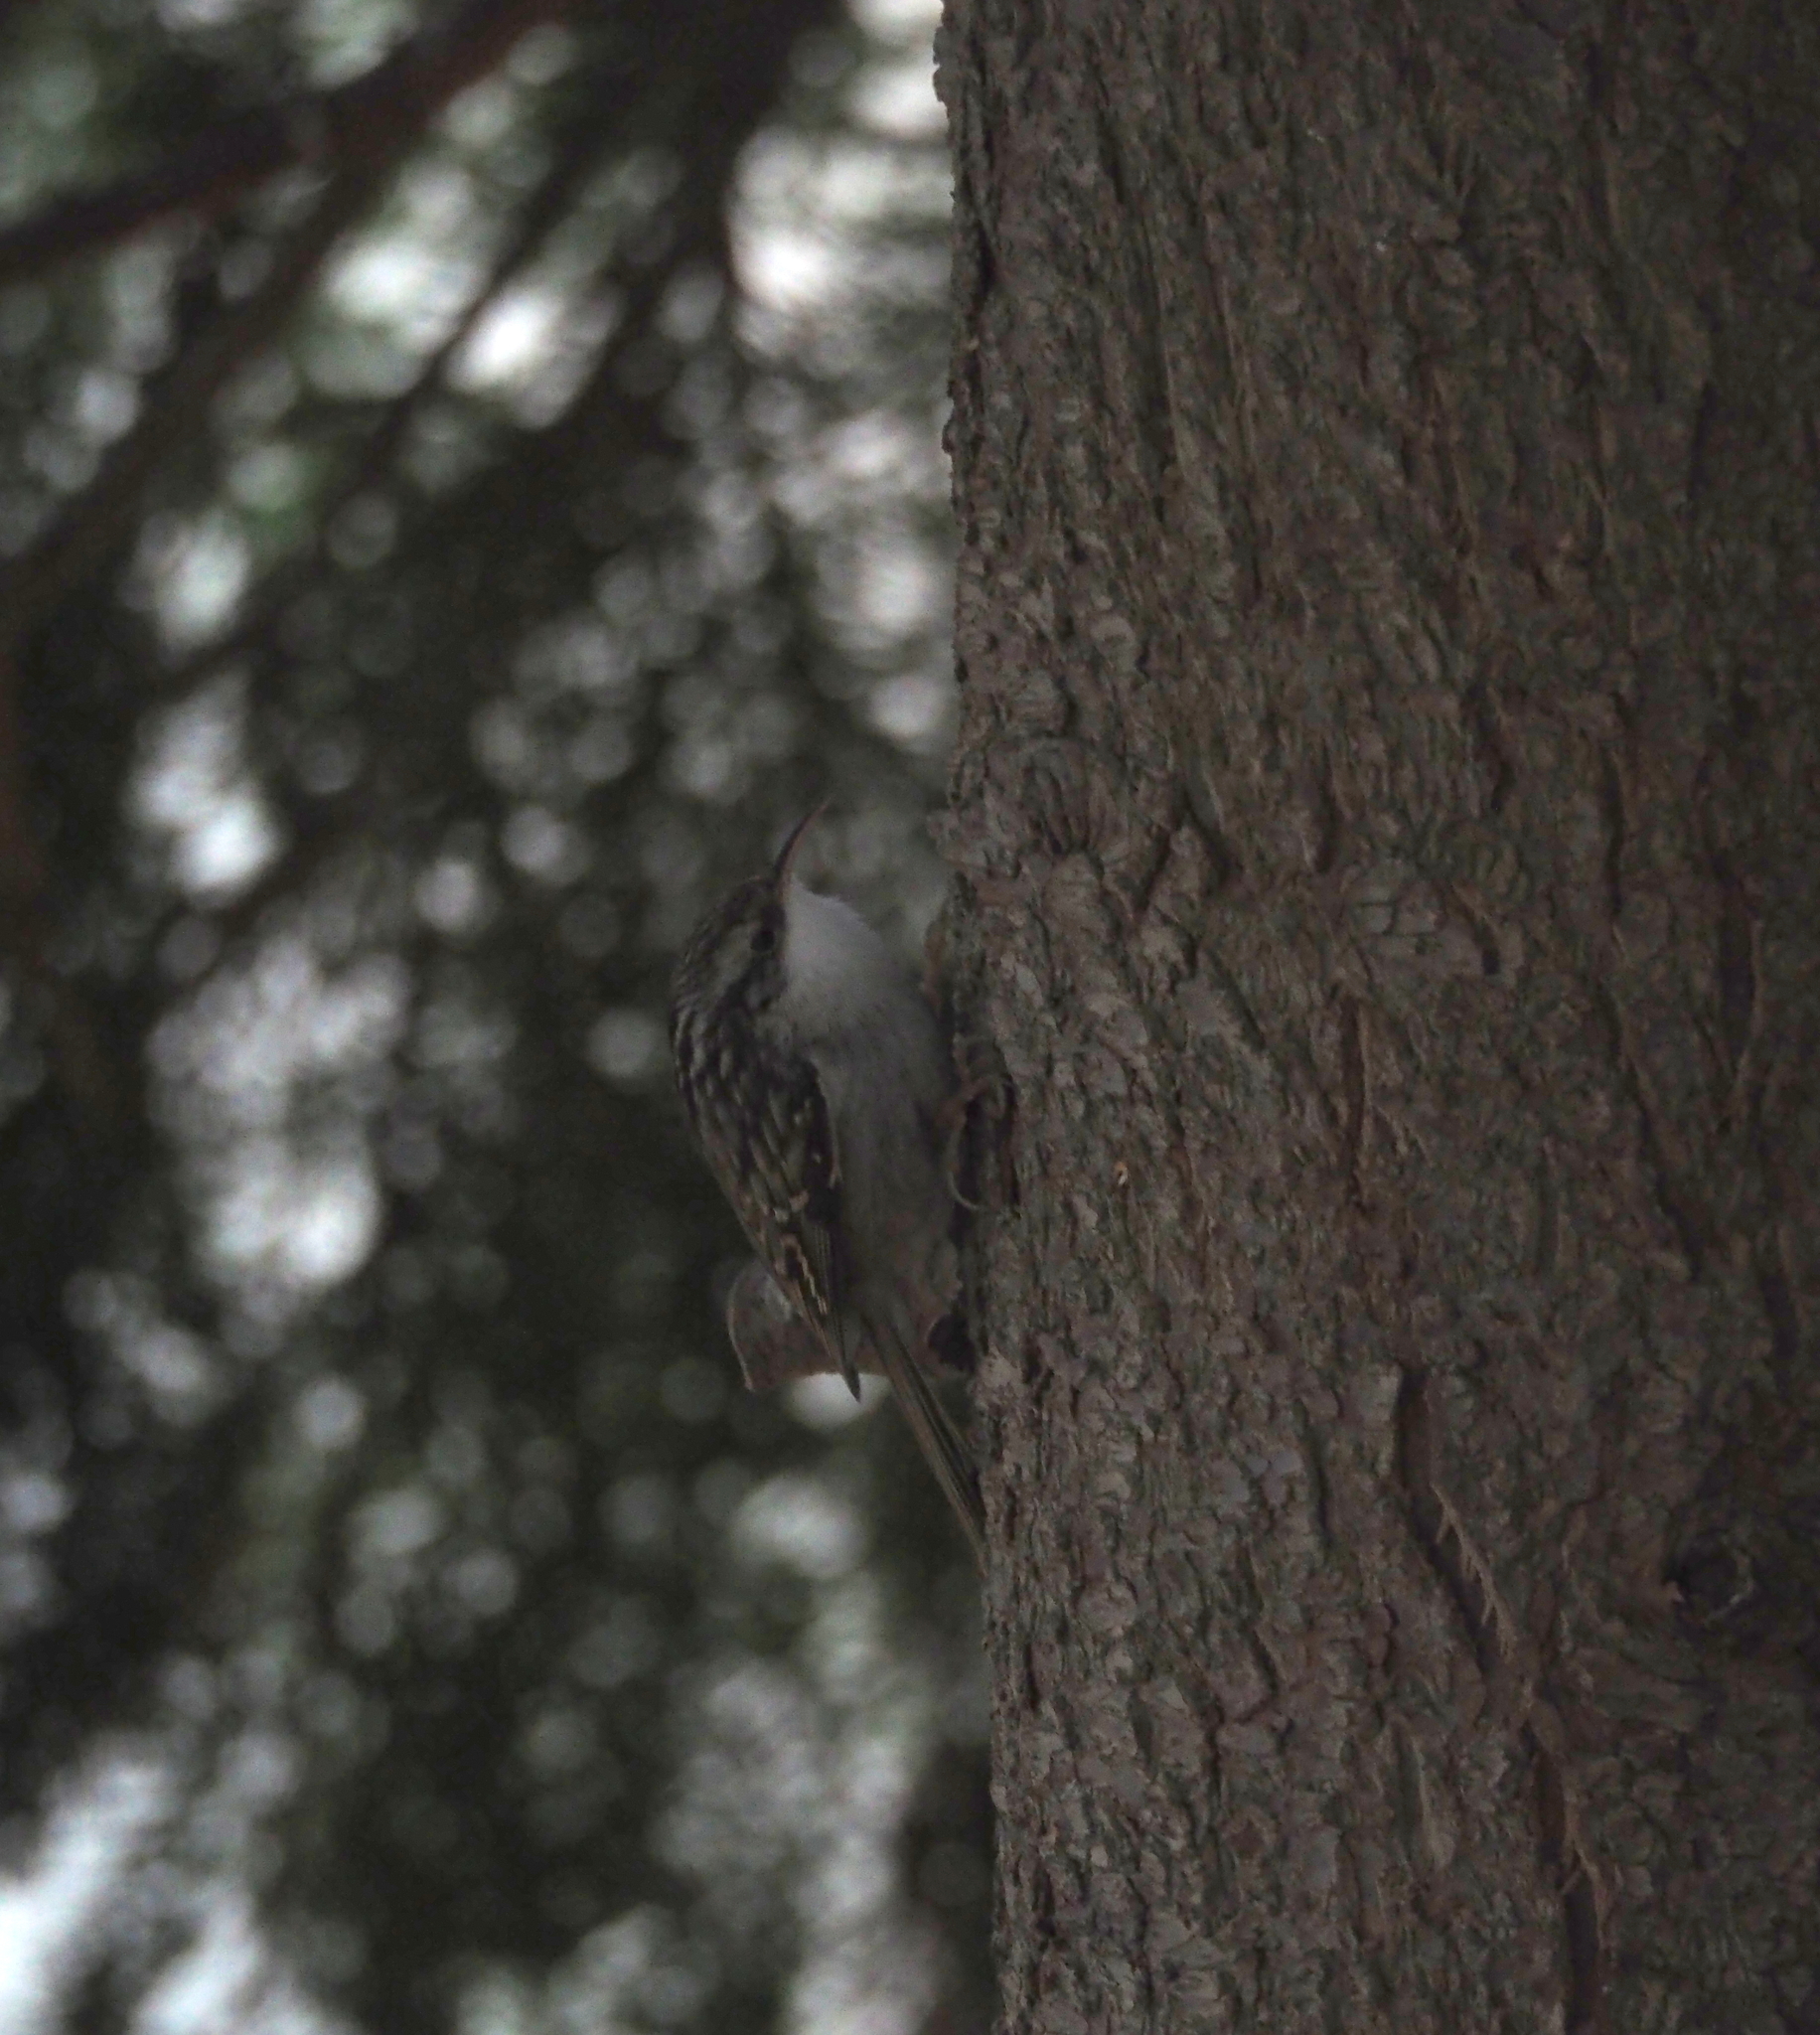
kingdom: Animalia
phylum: Chordata
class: Aves
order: Passeriformes
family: Certhiidae
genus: Certhia
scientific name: Certhia brachydactyla
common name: Short-toed treecreeper
